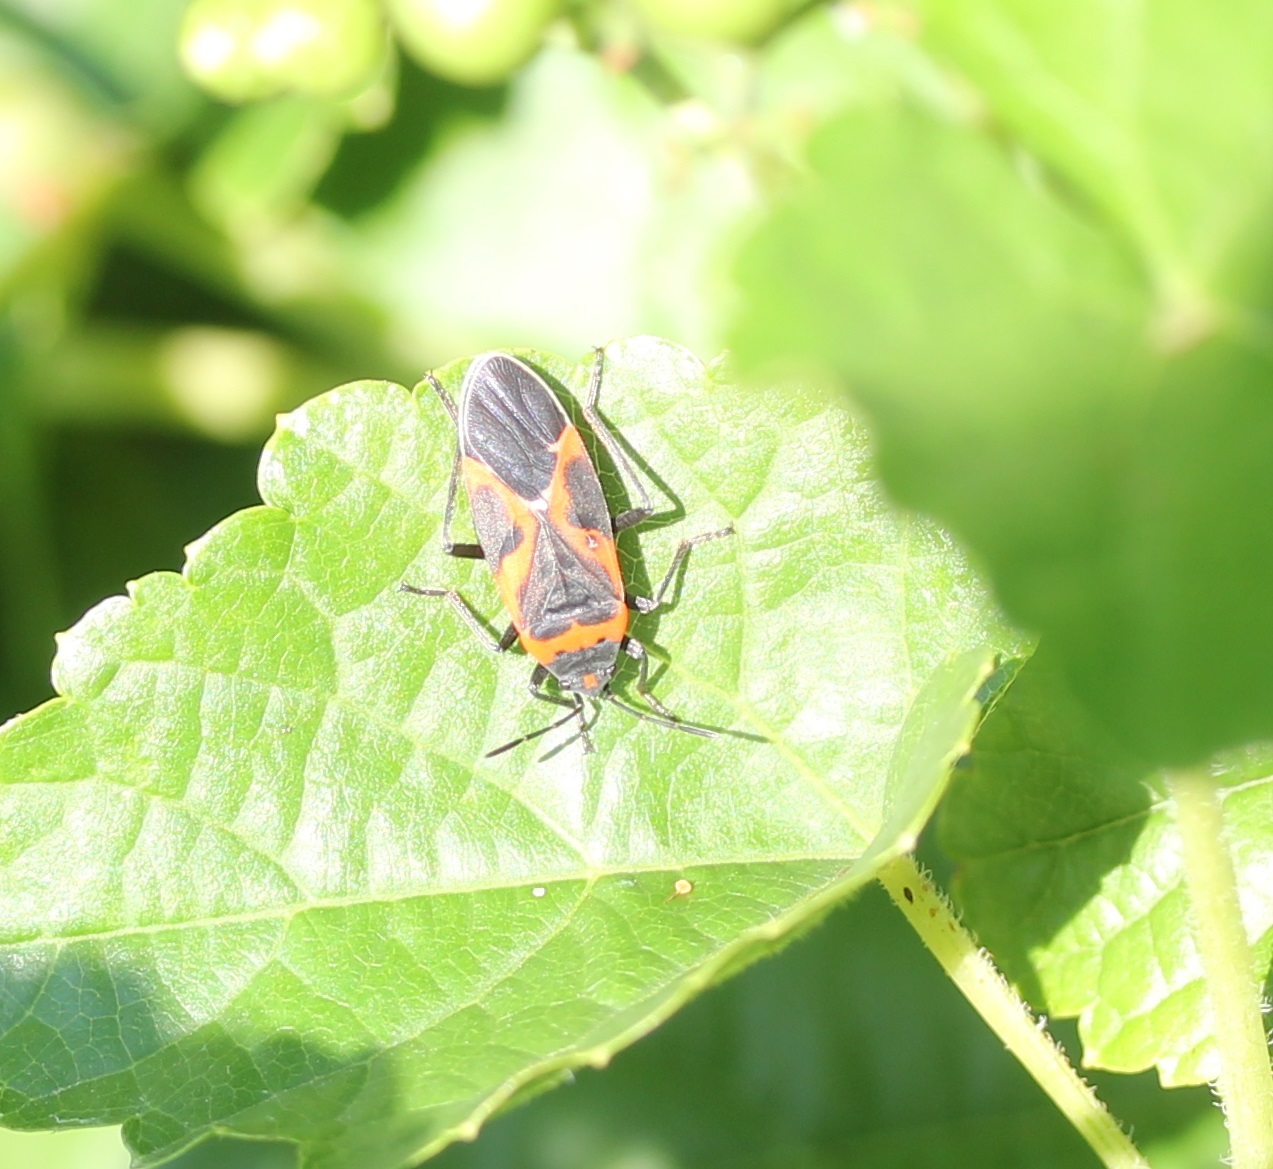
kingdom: Animalia
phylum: Arthropoda
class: Insecta
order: Hemiptera
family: Lygaeidae
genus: Lygaeus
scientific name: Lygaeus kalmii
